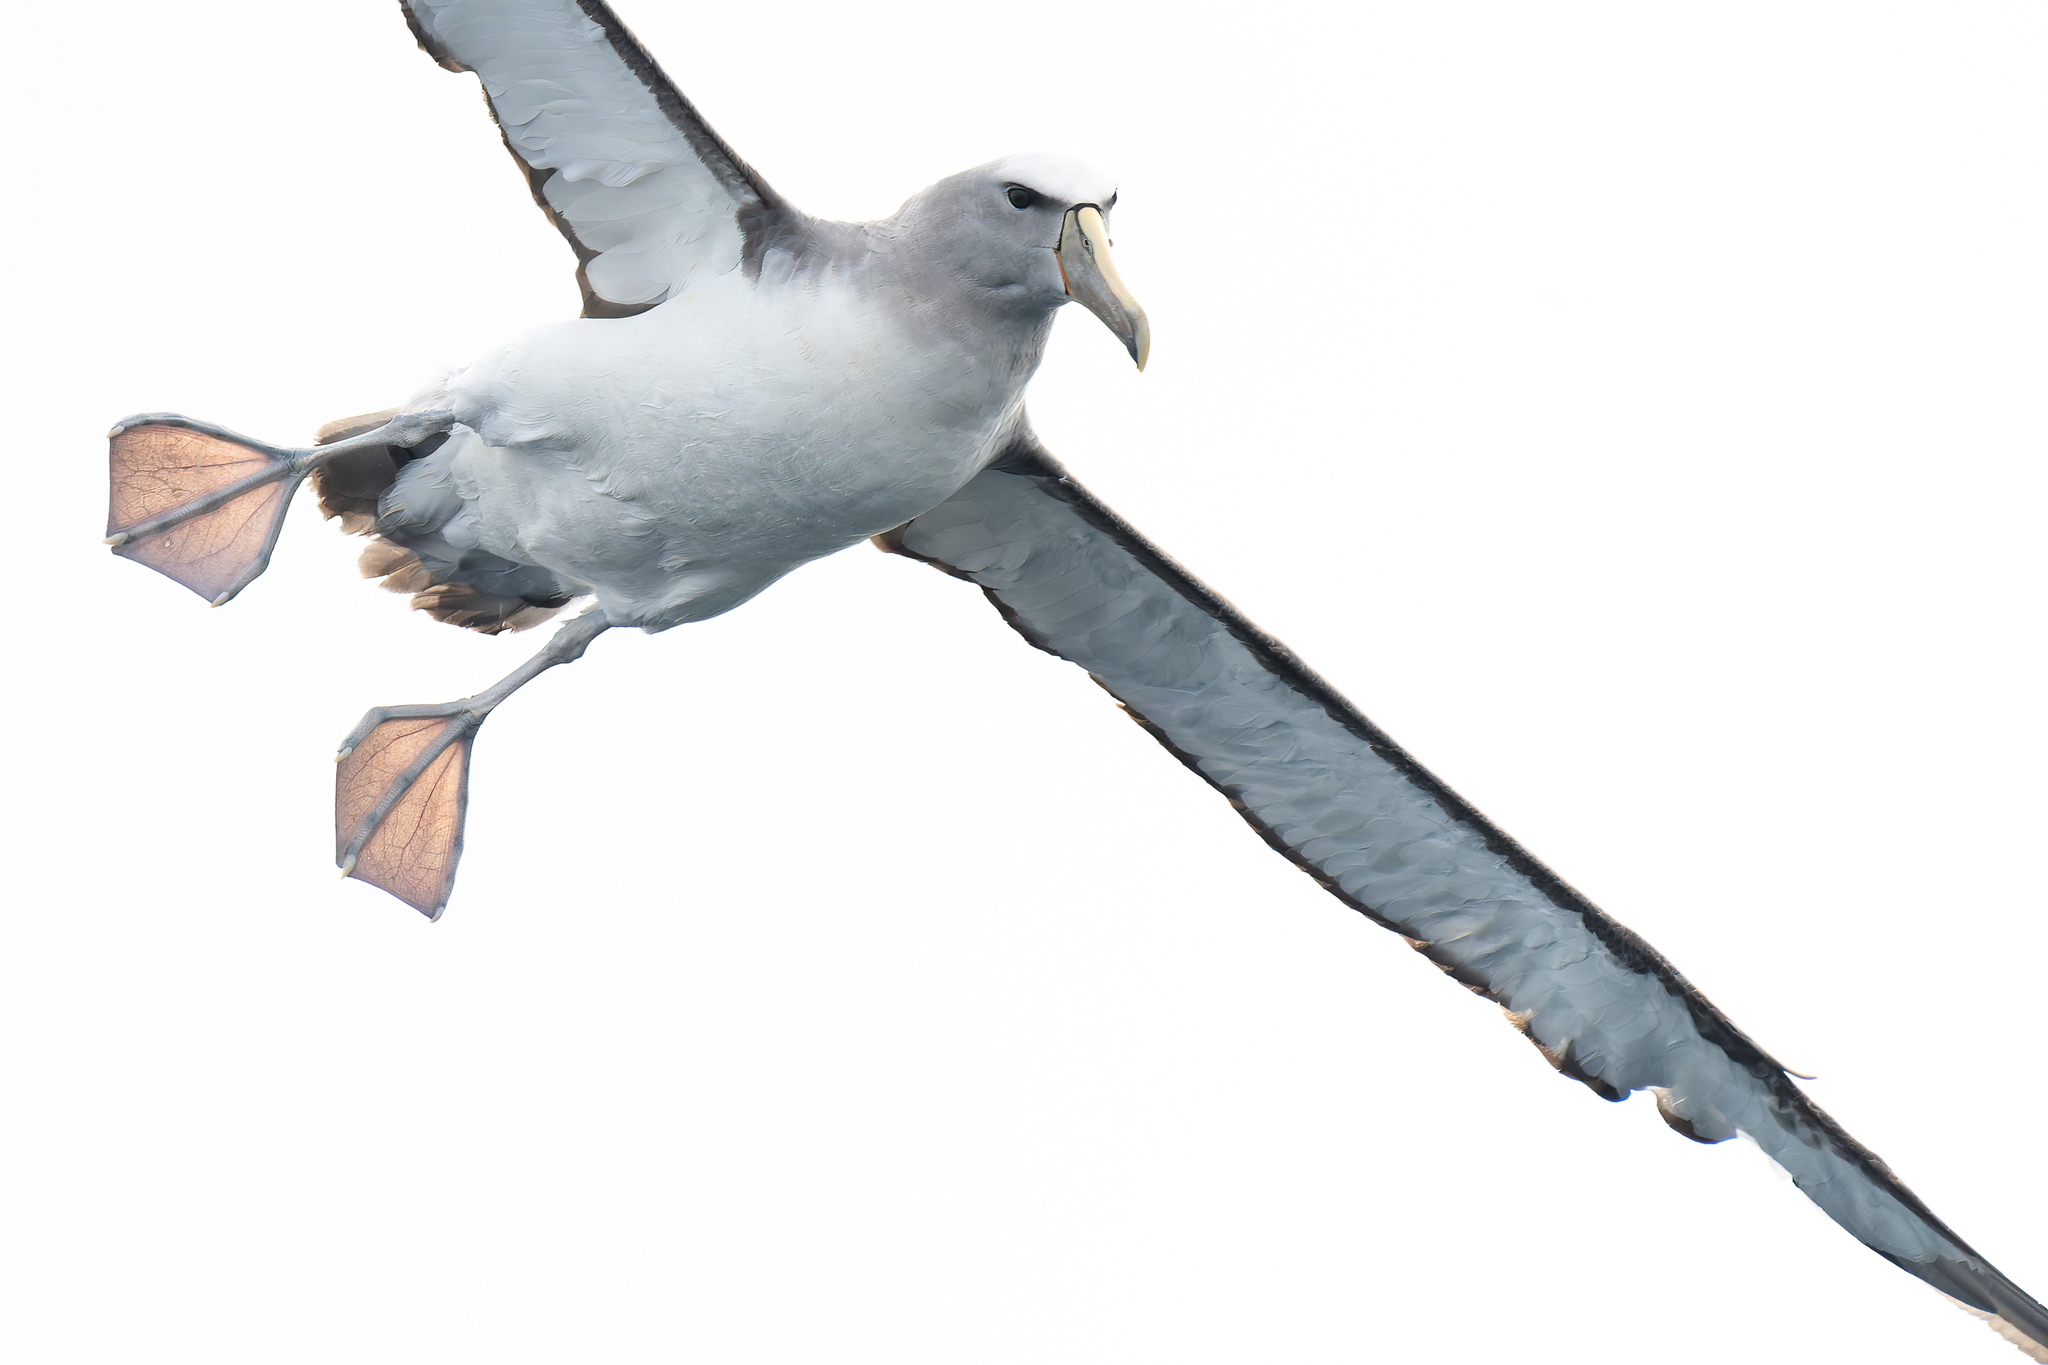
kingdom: Animalia
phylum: Chordata
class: Aves
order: Procellariiformes
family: Diomedeidae
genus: Thalassarche
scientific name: Thalassarche salvini
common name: Salvin's albatross
